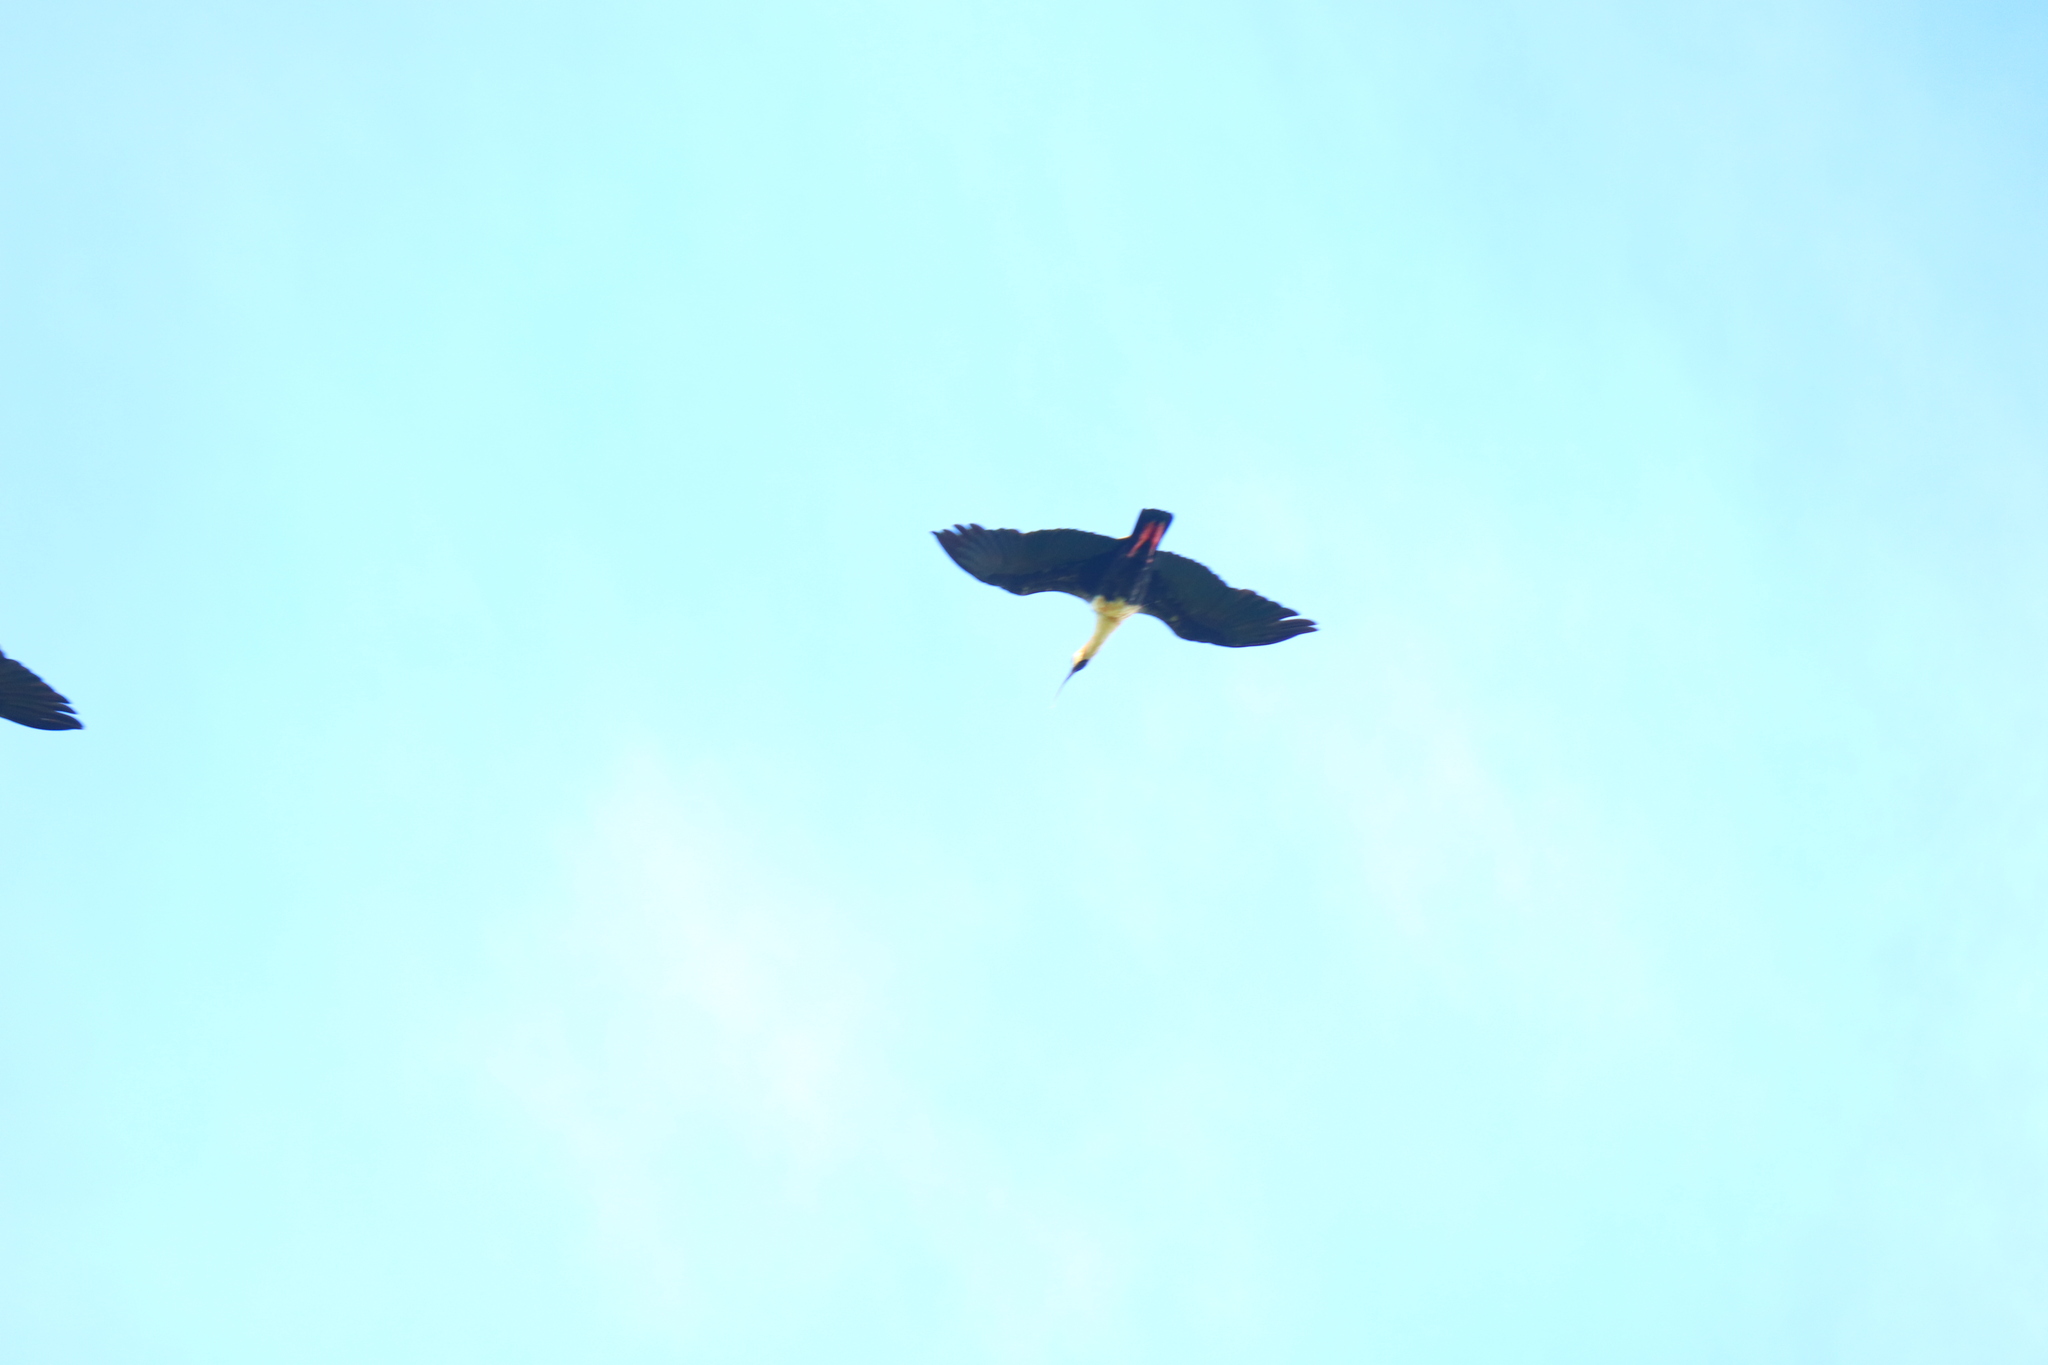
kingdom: Animalia
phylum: Chordata
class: Aves
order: Pelecaniformes
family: Threskiornithidae
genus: Theristicus
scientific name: Theristicus melanopis
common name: Black-faced ibis
